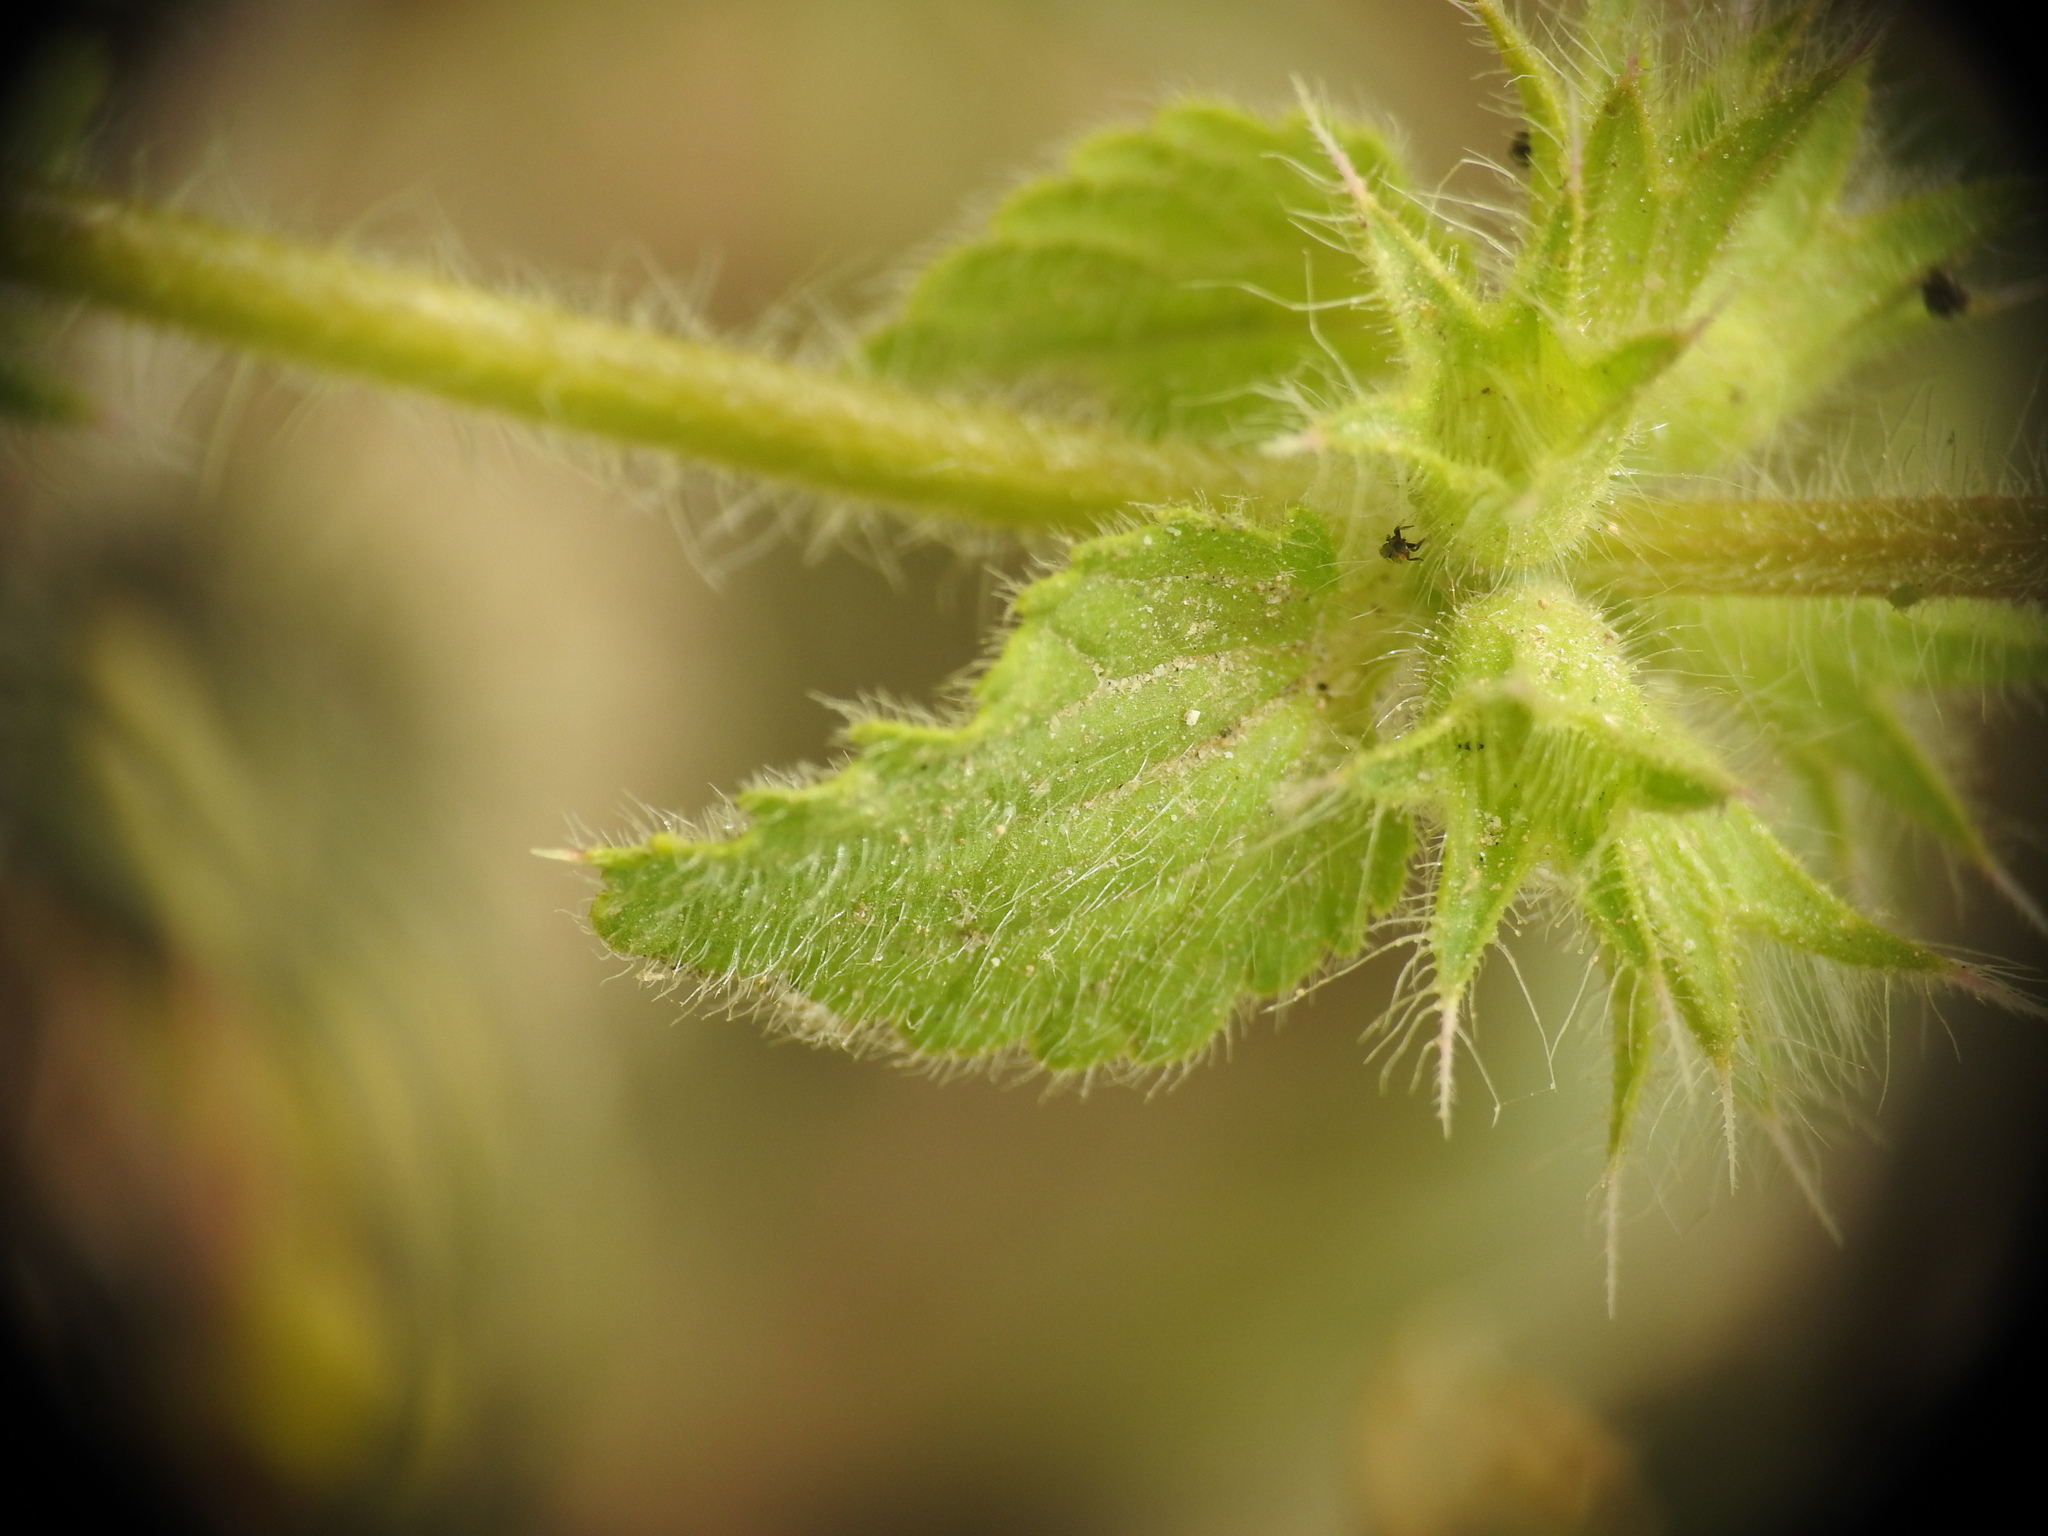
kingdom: Plantae
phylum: Tracheophyta
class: Magnoliopsida
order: Lamiales
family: Lamiaceae
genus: Stachys
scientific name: Stachys ocymastrum
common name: Italian hedgenettle
